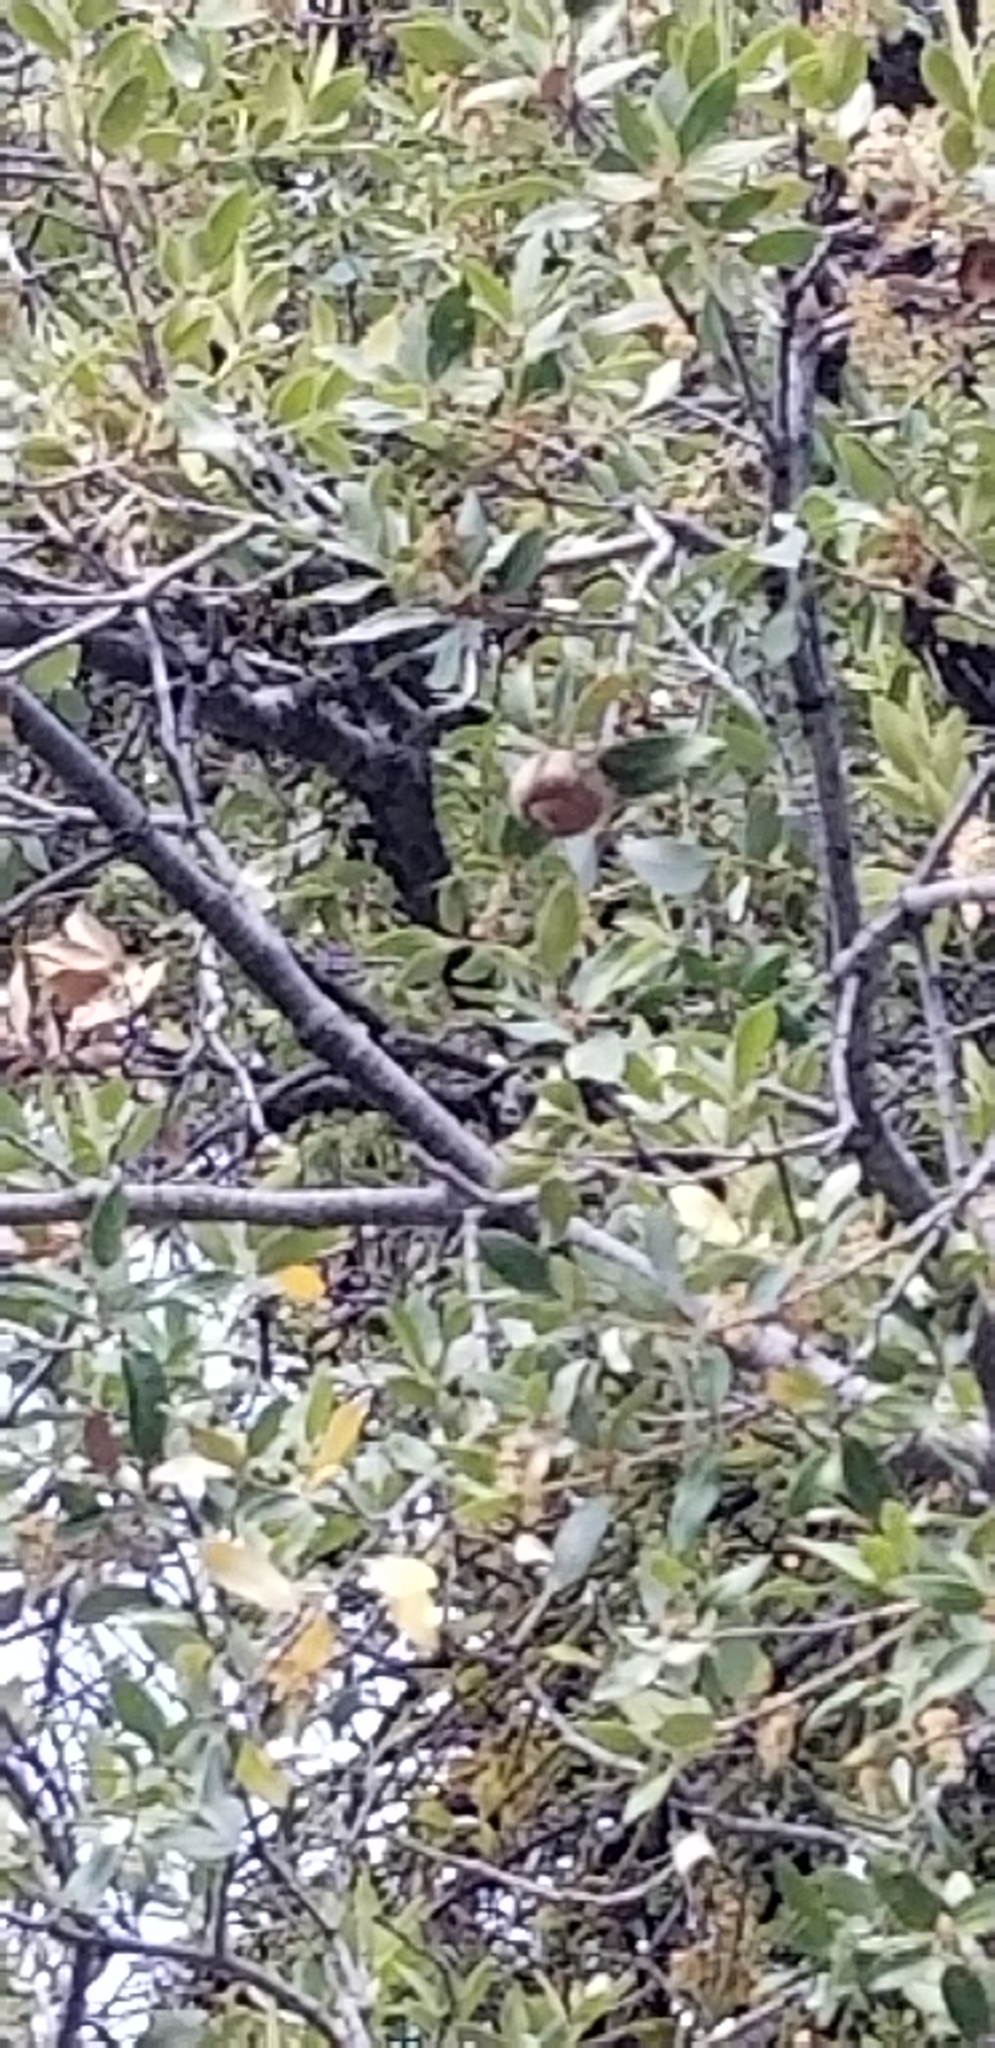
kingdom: Plantae
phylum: Tracheophyta
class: Magnoliopsida
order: Fagales
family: Fagaceae
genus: Quercus
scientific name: Quercus chrysolepis
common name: Canyon live oak
